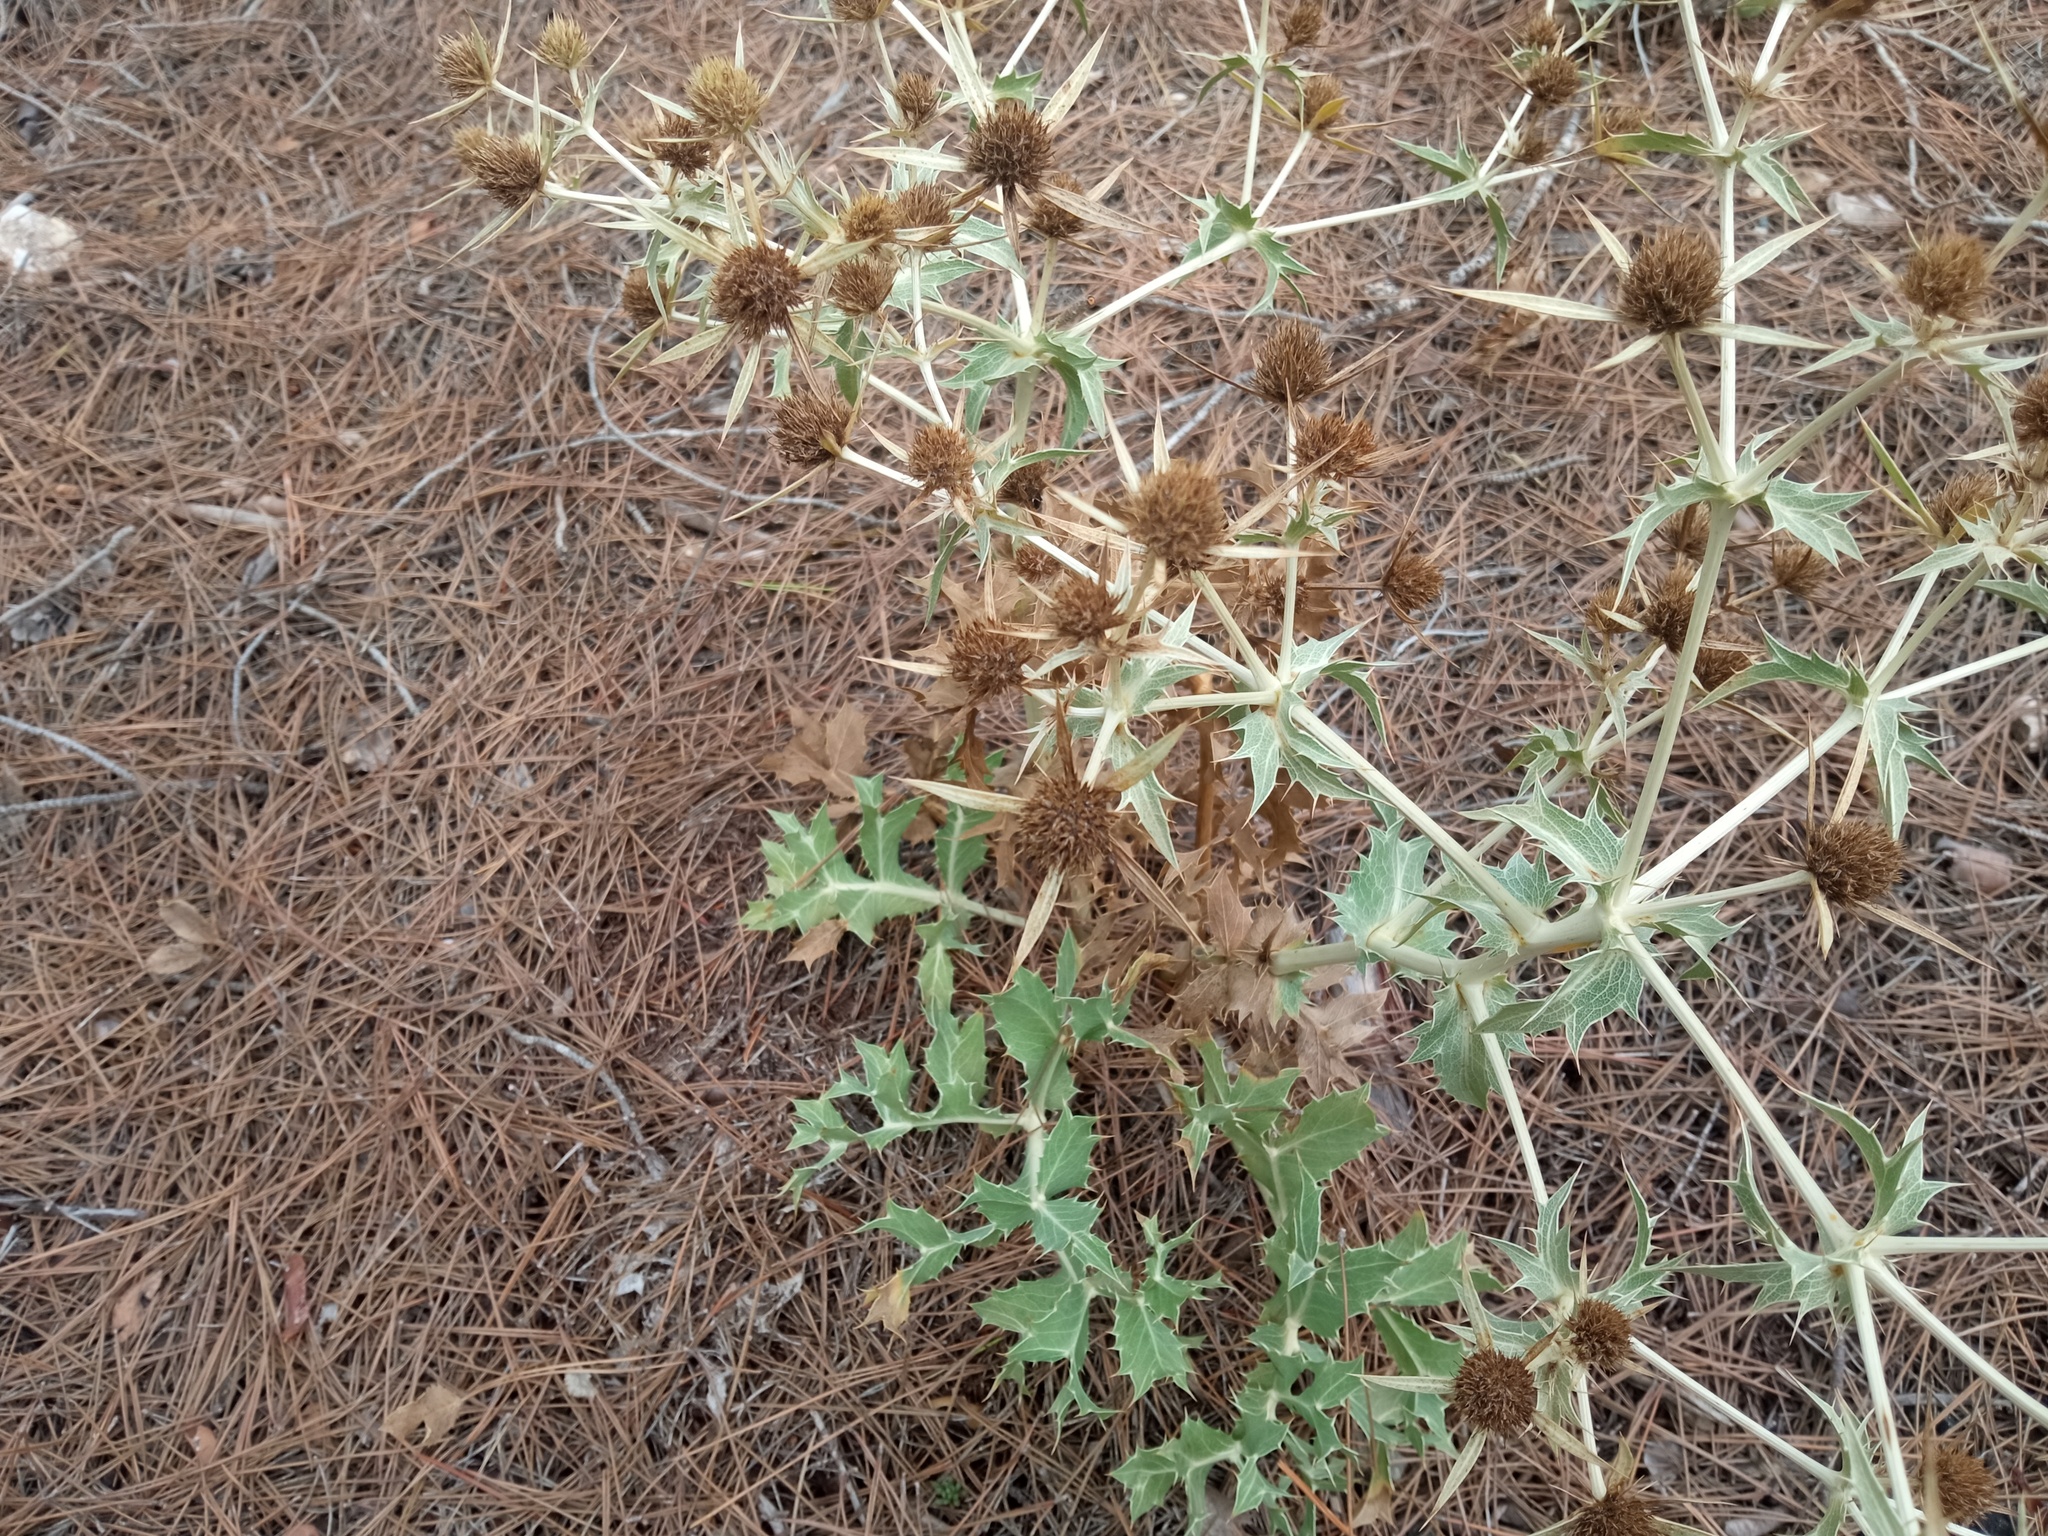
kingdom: Plantae
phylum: Tracheophyta
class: Magnoliopsida
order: Apiales
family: Apiaceae
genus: Eryngium
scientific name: Eryngium campestre
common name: Field eryngo
